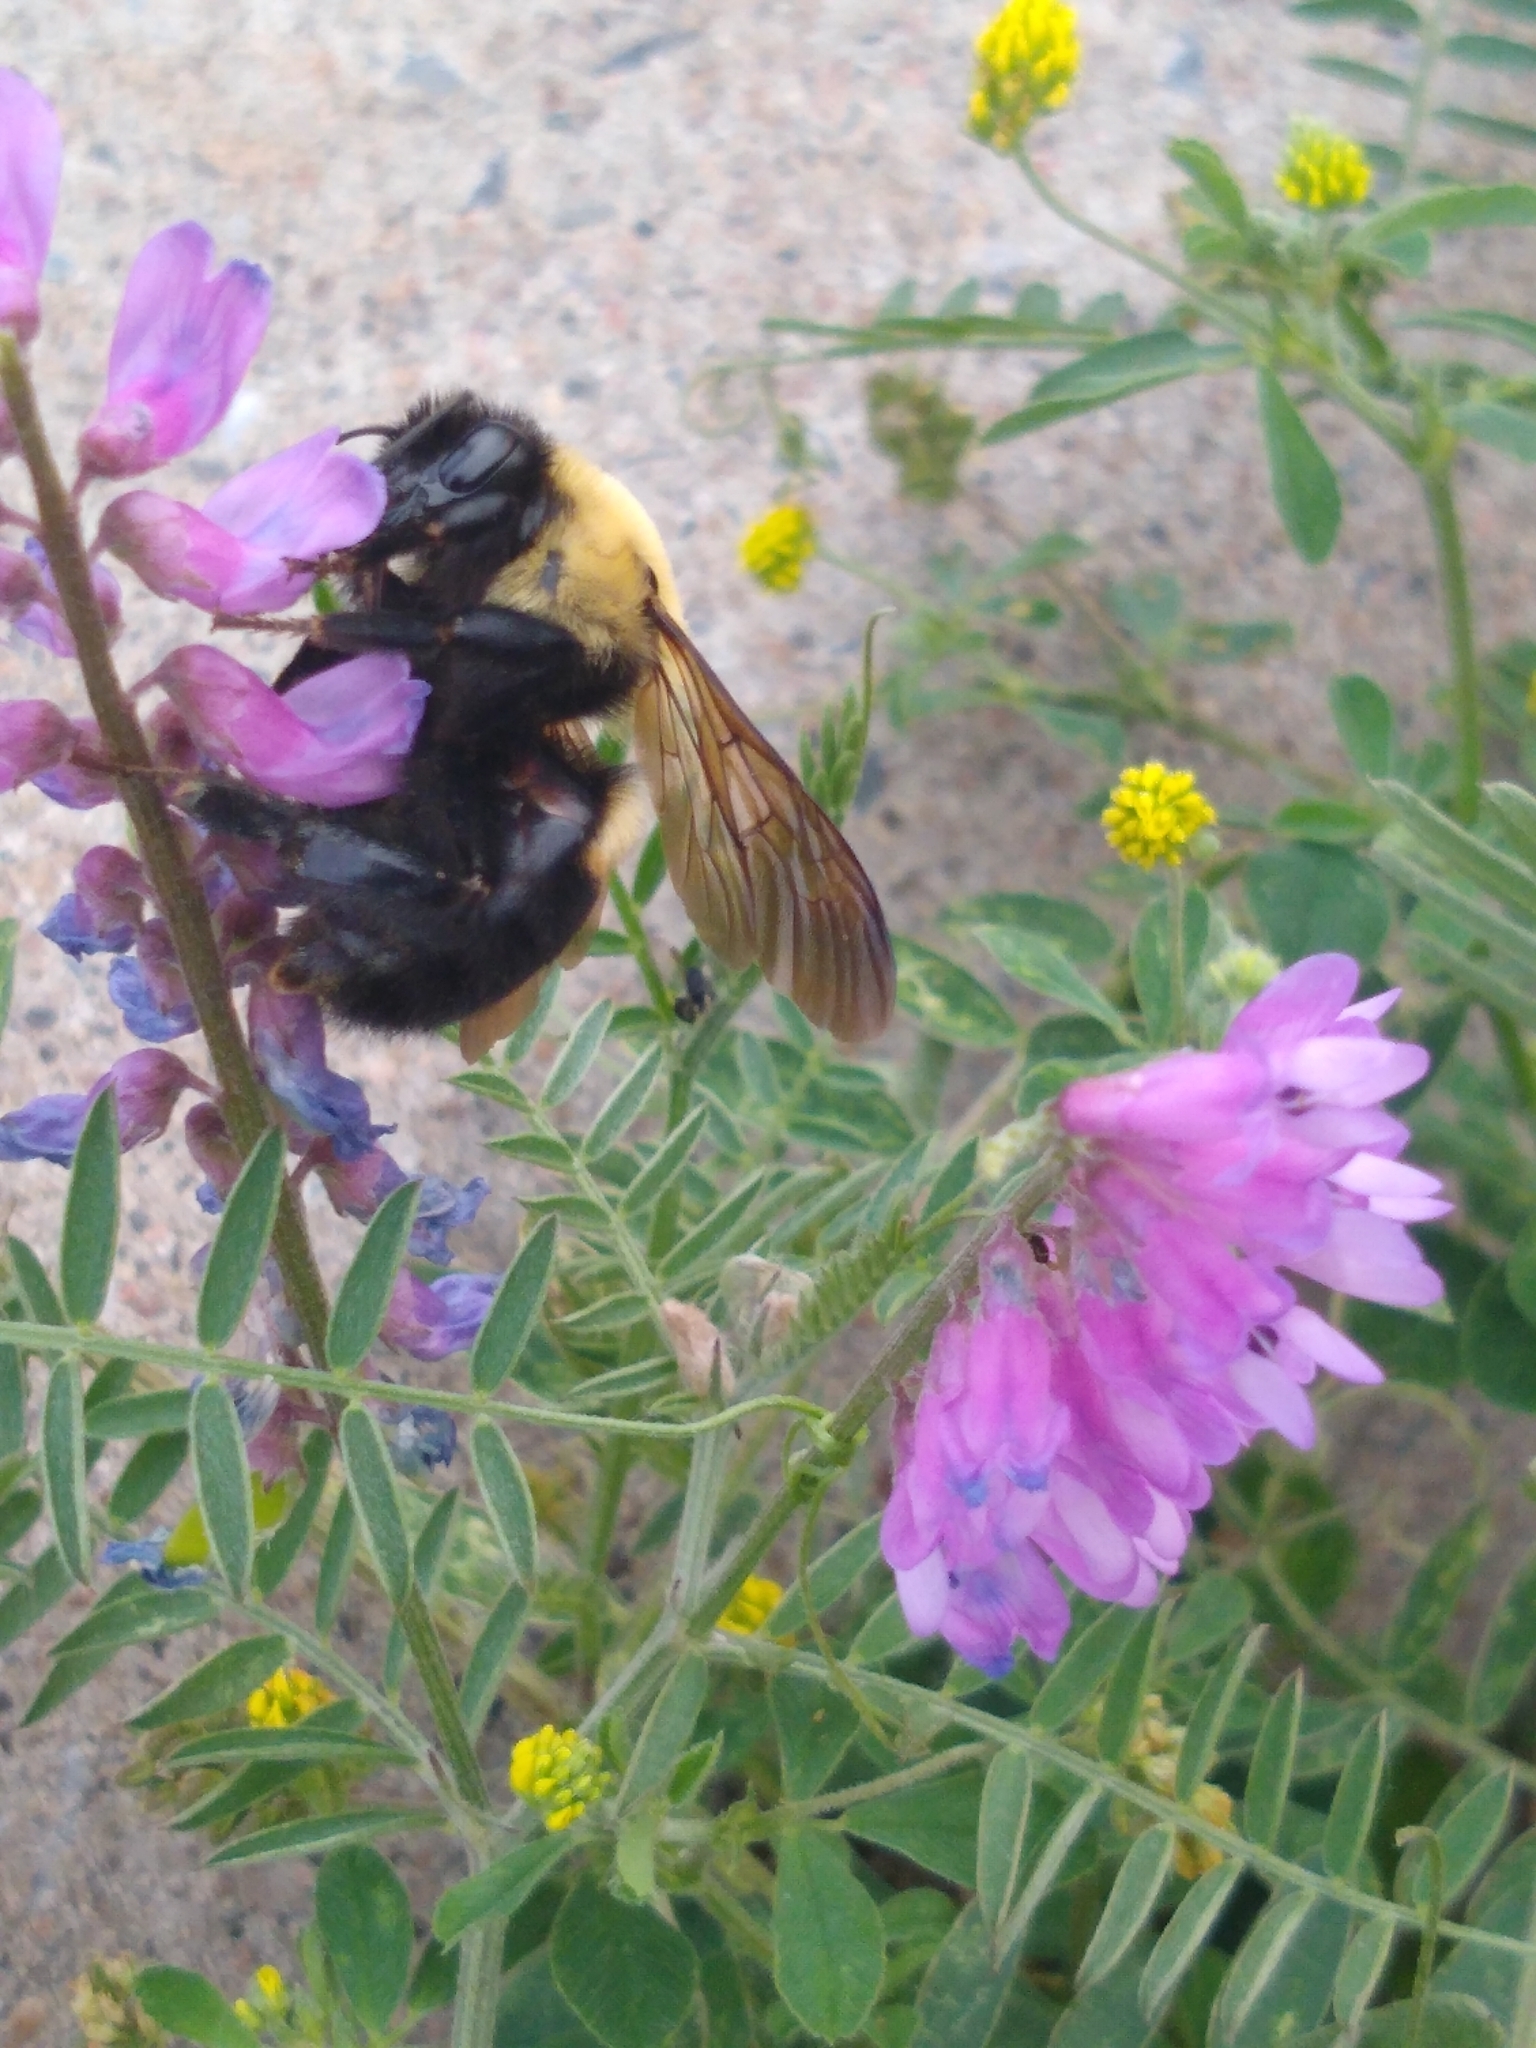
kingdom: Animalia
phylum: Arthropoda
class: Insecta
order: Hymenoptera
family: Apidae
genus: Bombus
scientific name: Bombus griseocollis
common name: Brown-belted bumble bee
